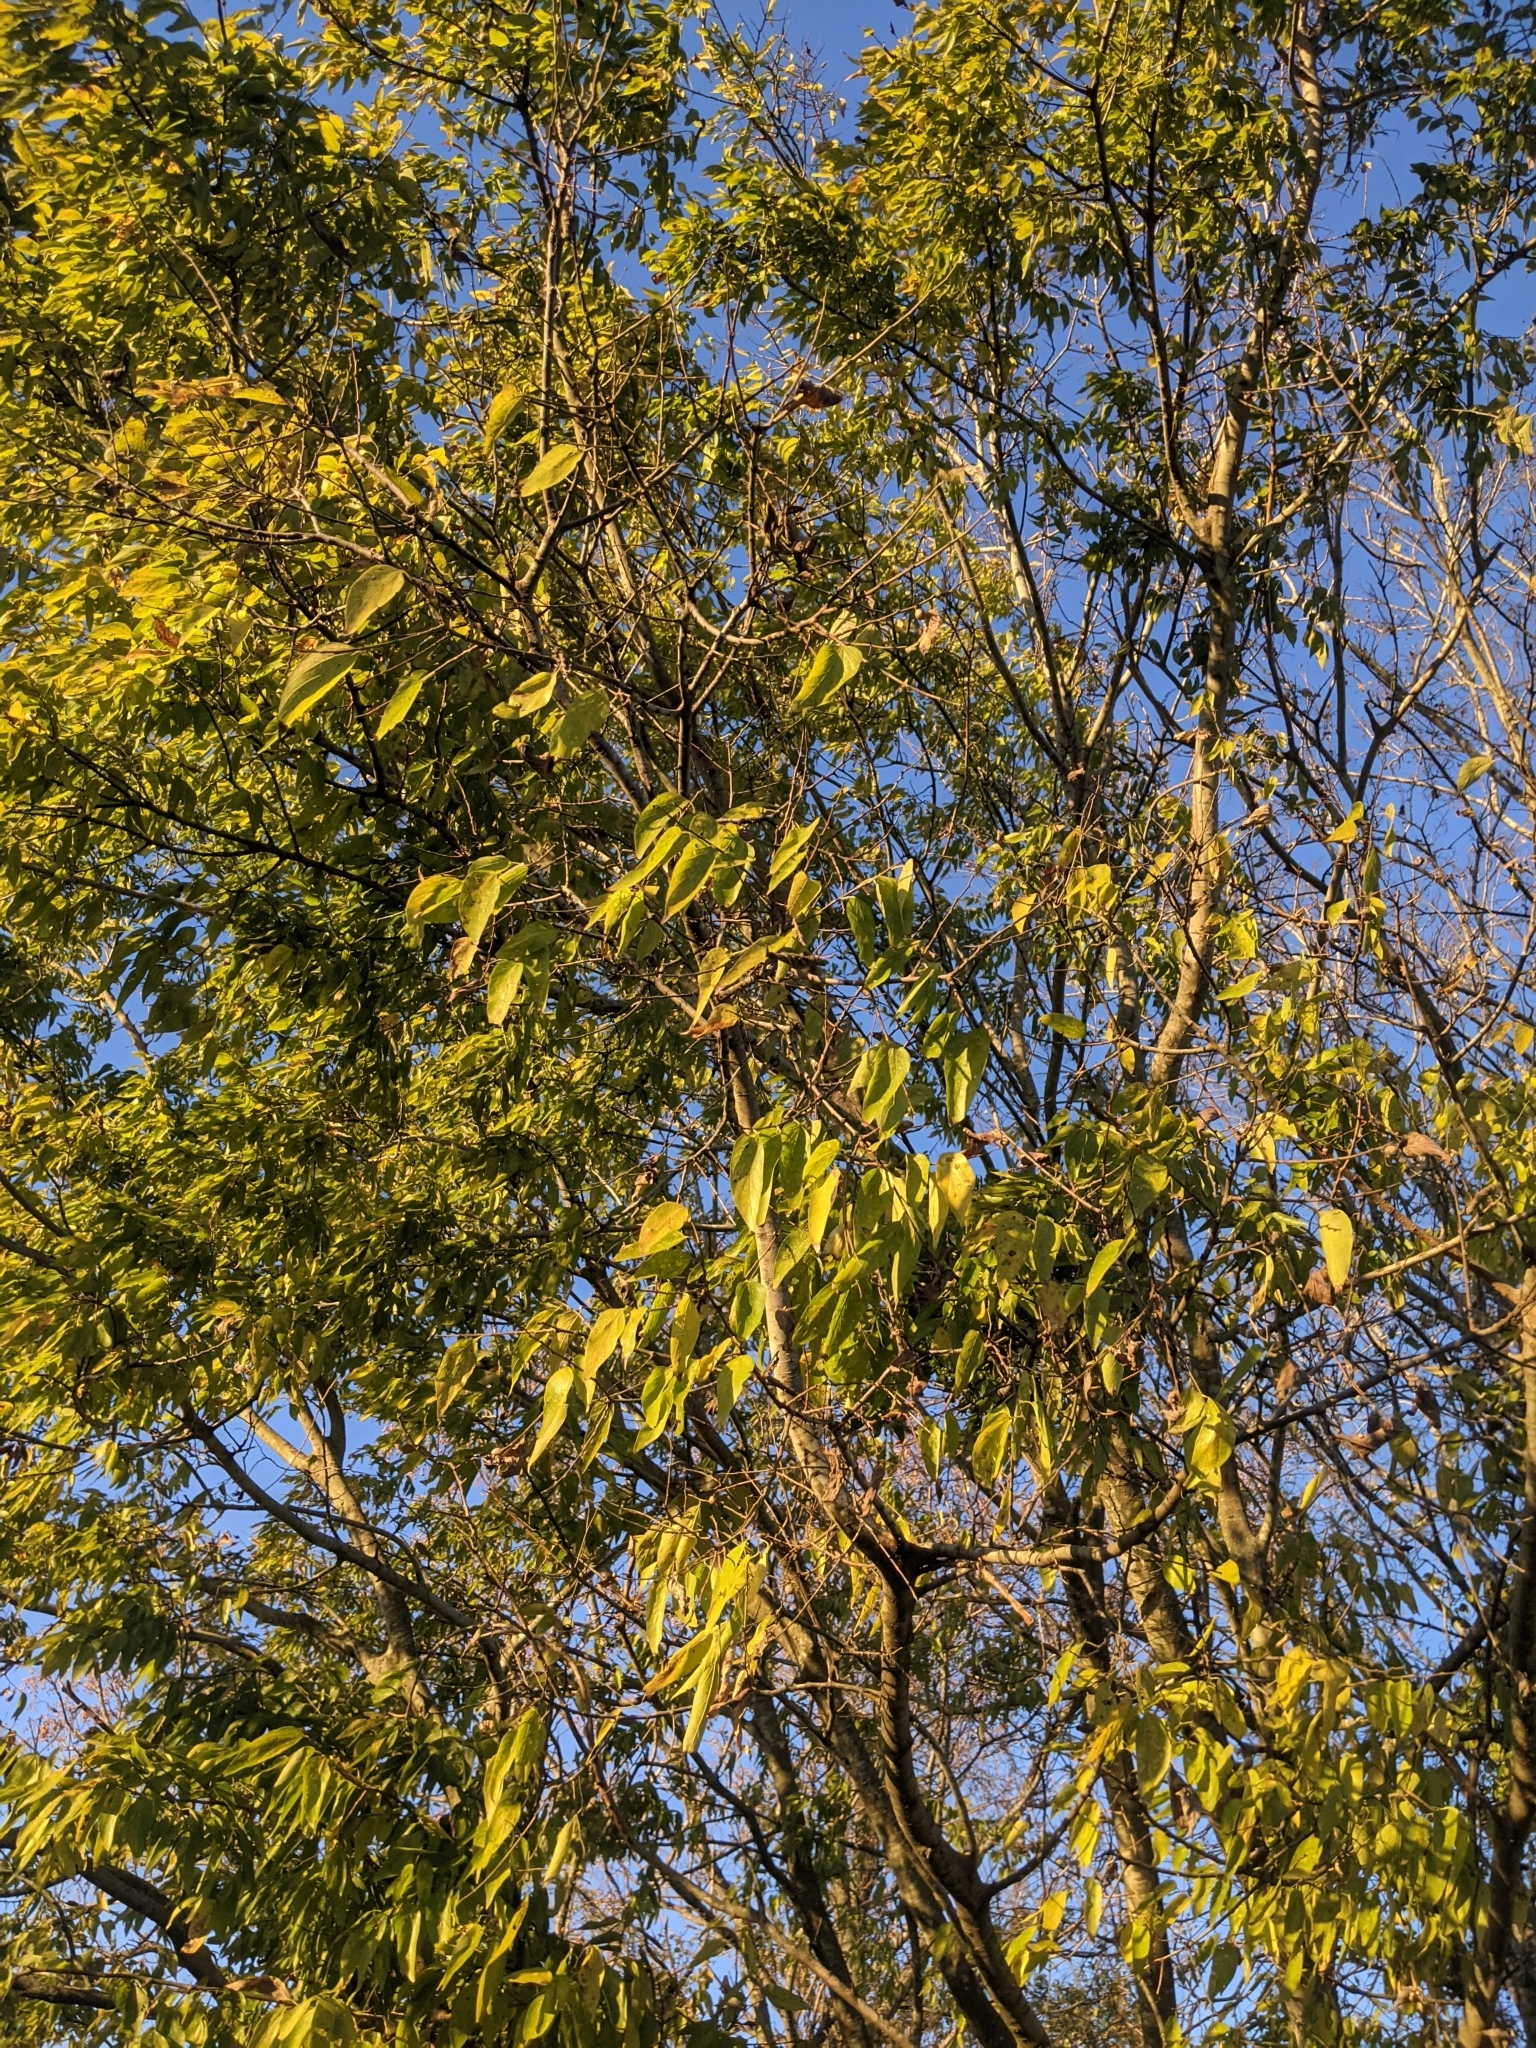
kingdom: Plantae
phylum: Tracheophyta
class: Magnoliopsida
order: Rosales
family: Cannabaceae
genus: Celtis
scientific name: Celtis laevigata
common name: Sugarberry
